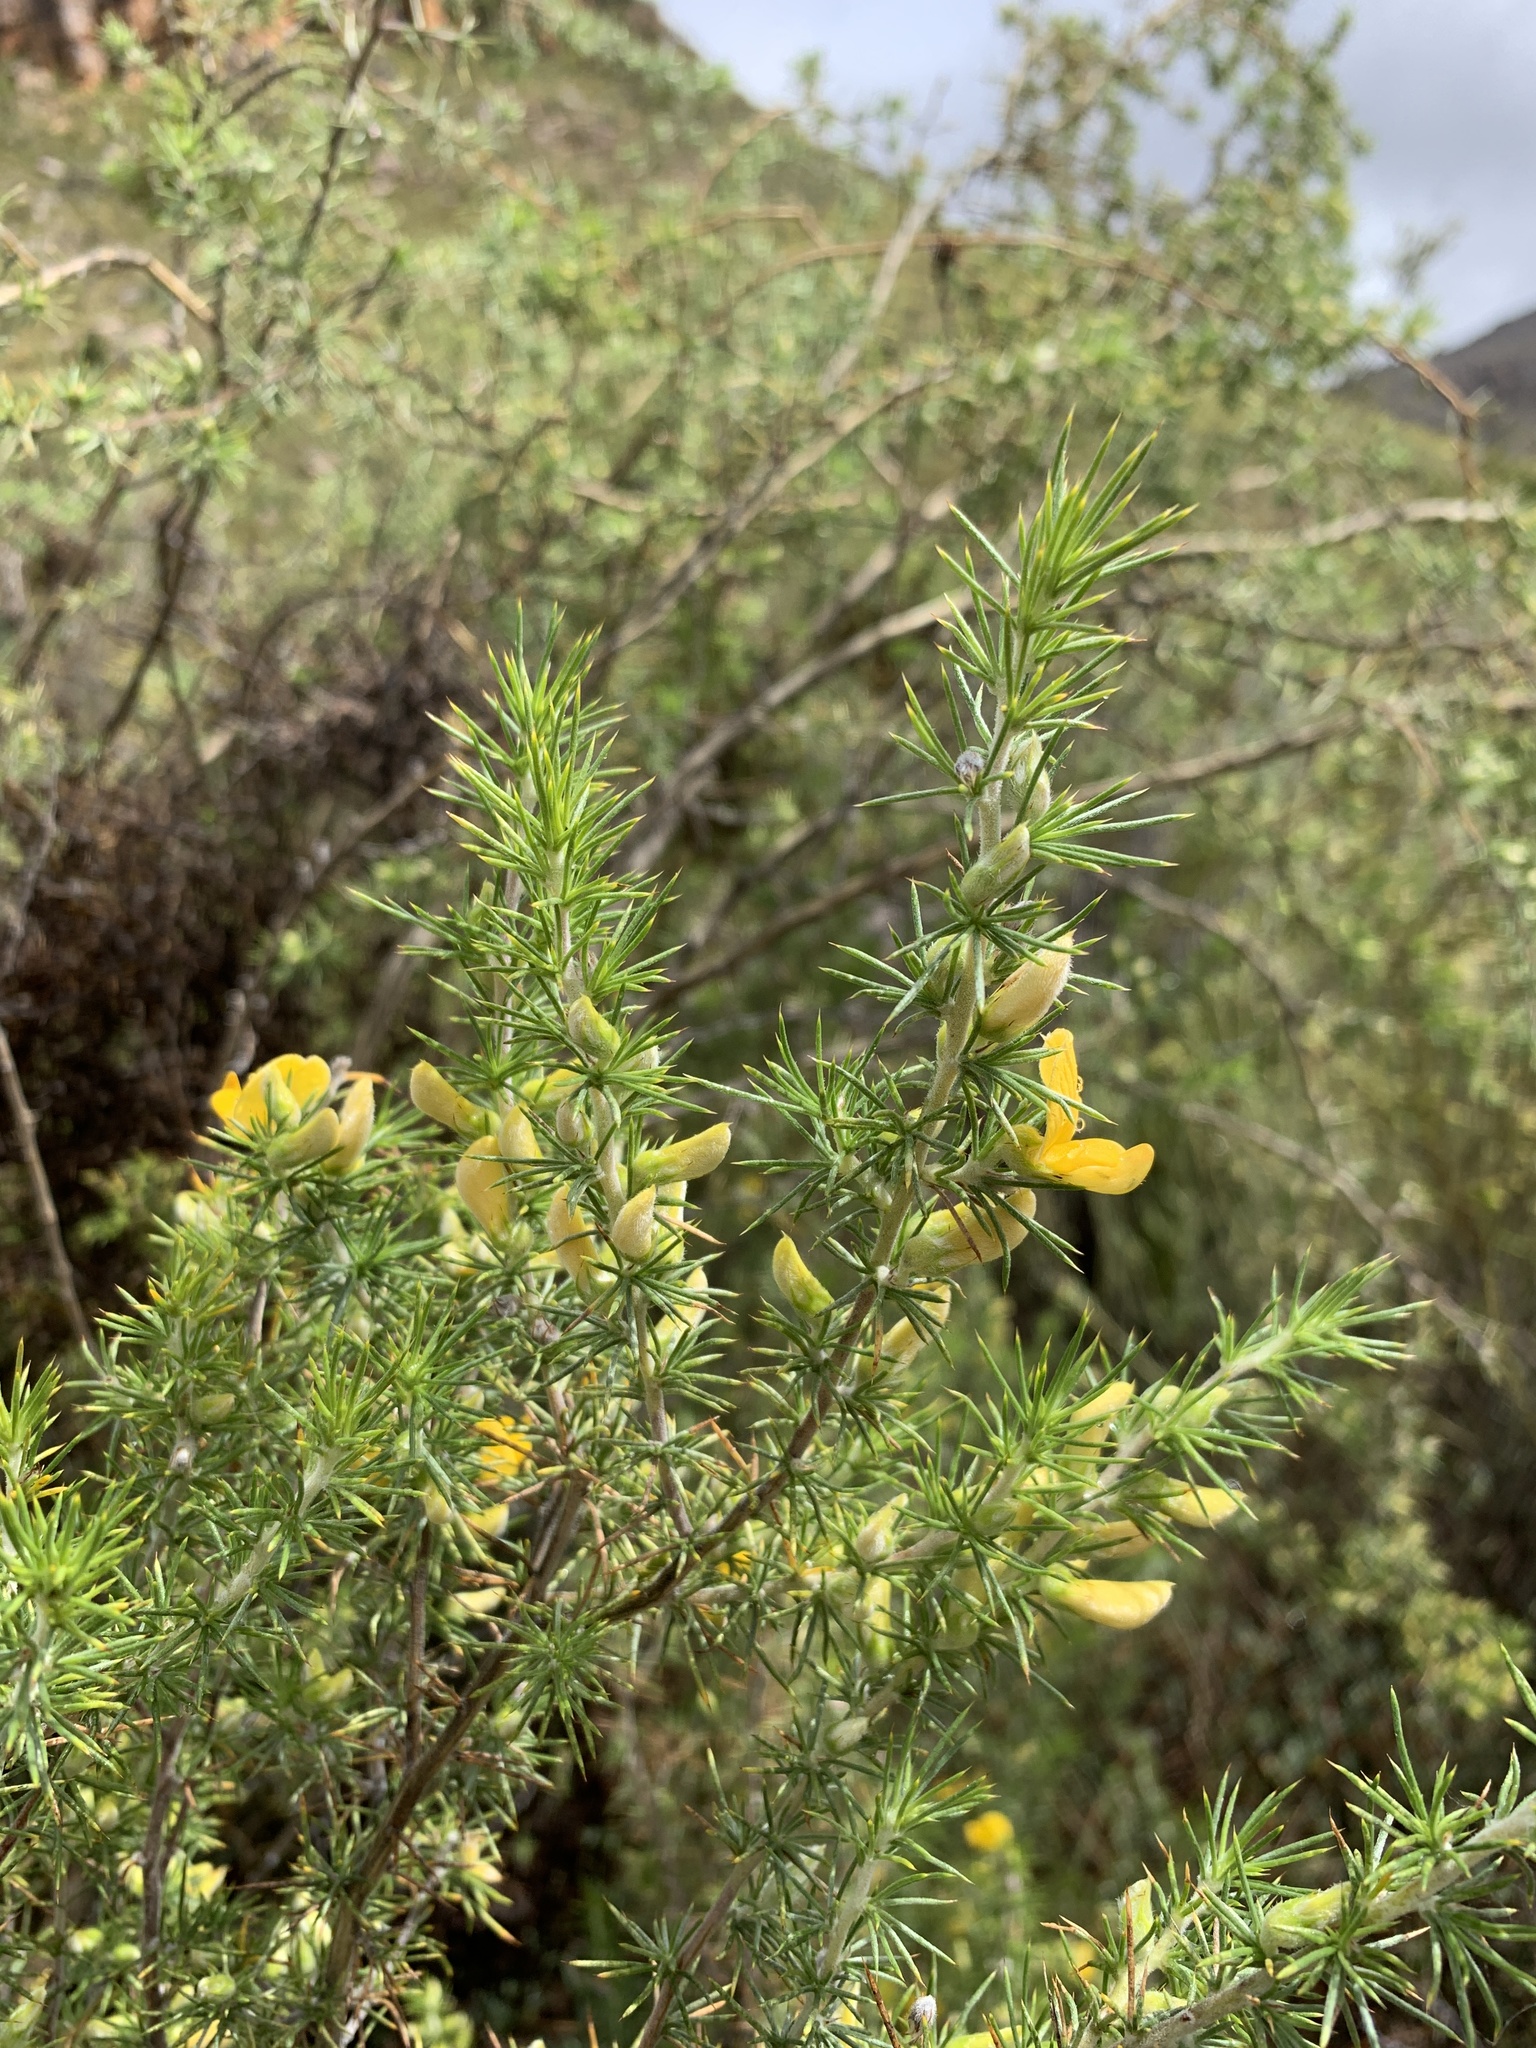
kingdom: Plantae
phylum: Tracheophyta
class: Magnoliopsida
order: Fabales
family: Fabaceae
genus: Aspalathus
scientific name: Aspalathus hirta
